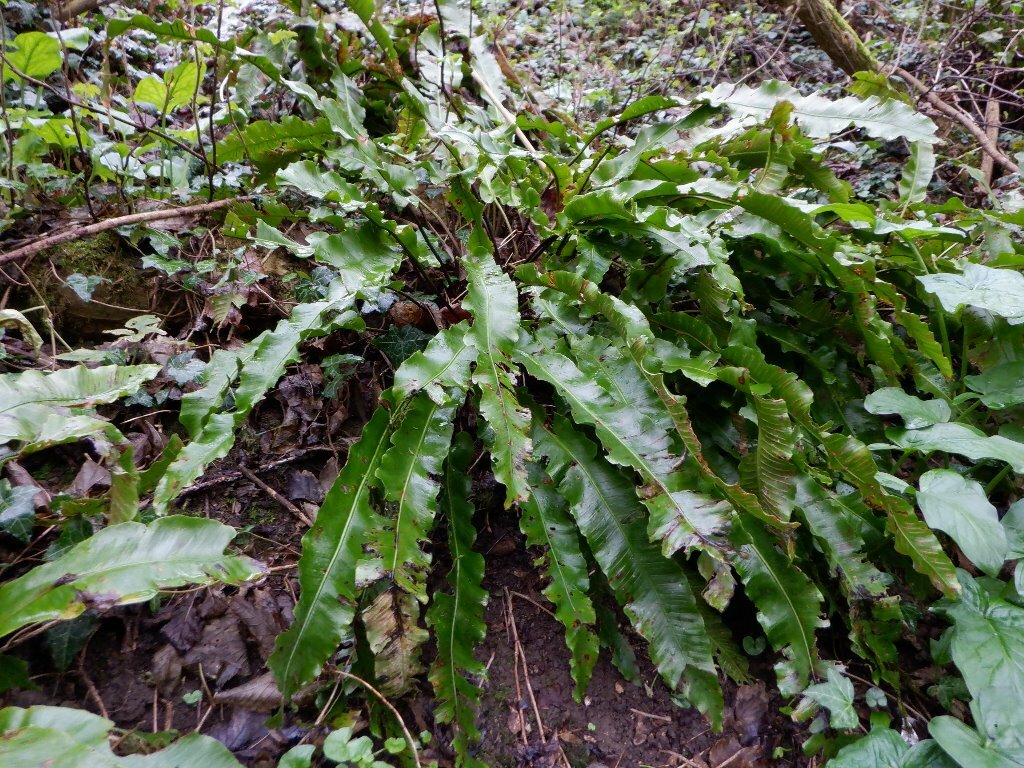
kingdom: Plantae
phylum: Tracheophyta
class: Polypodiopsida
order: Polypodiales
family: Aspleniaceae
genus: Asplenium
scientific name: Asplenium scolopendrium
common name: Hart's-tongue fern
